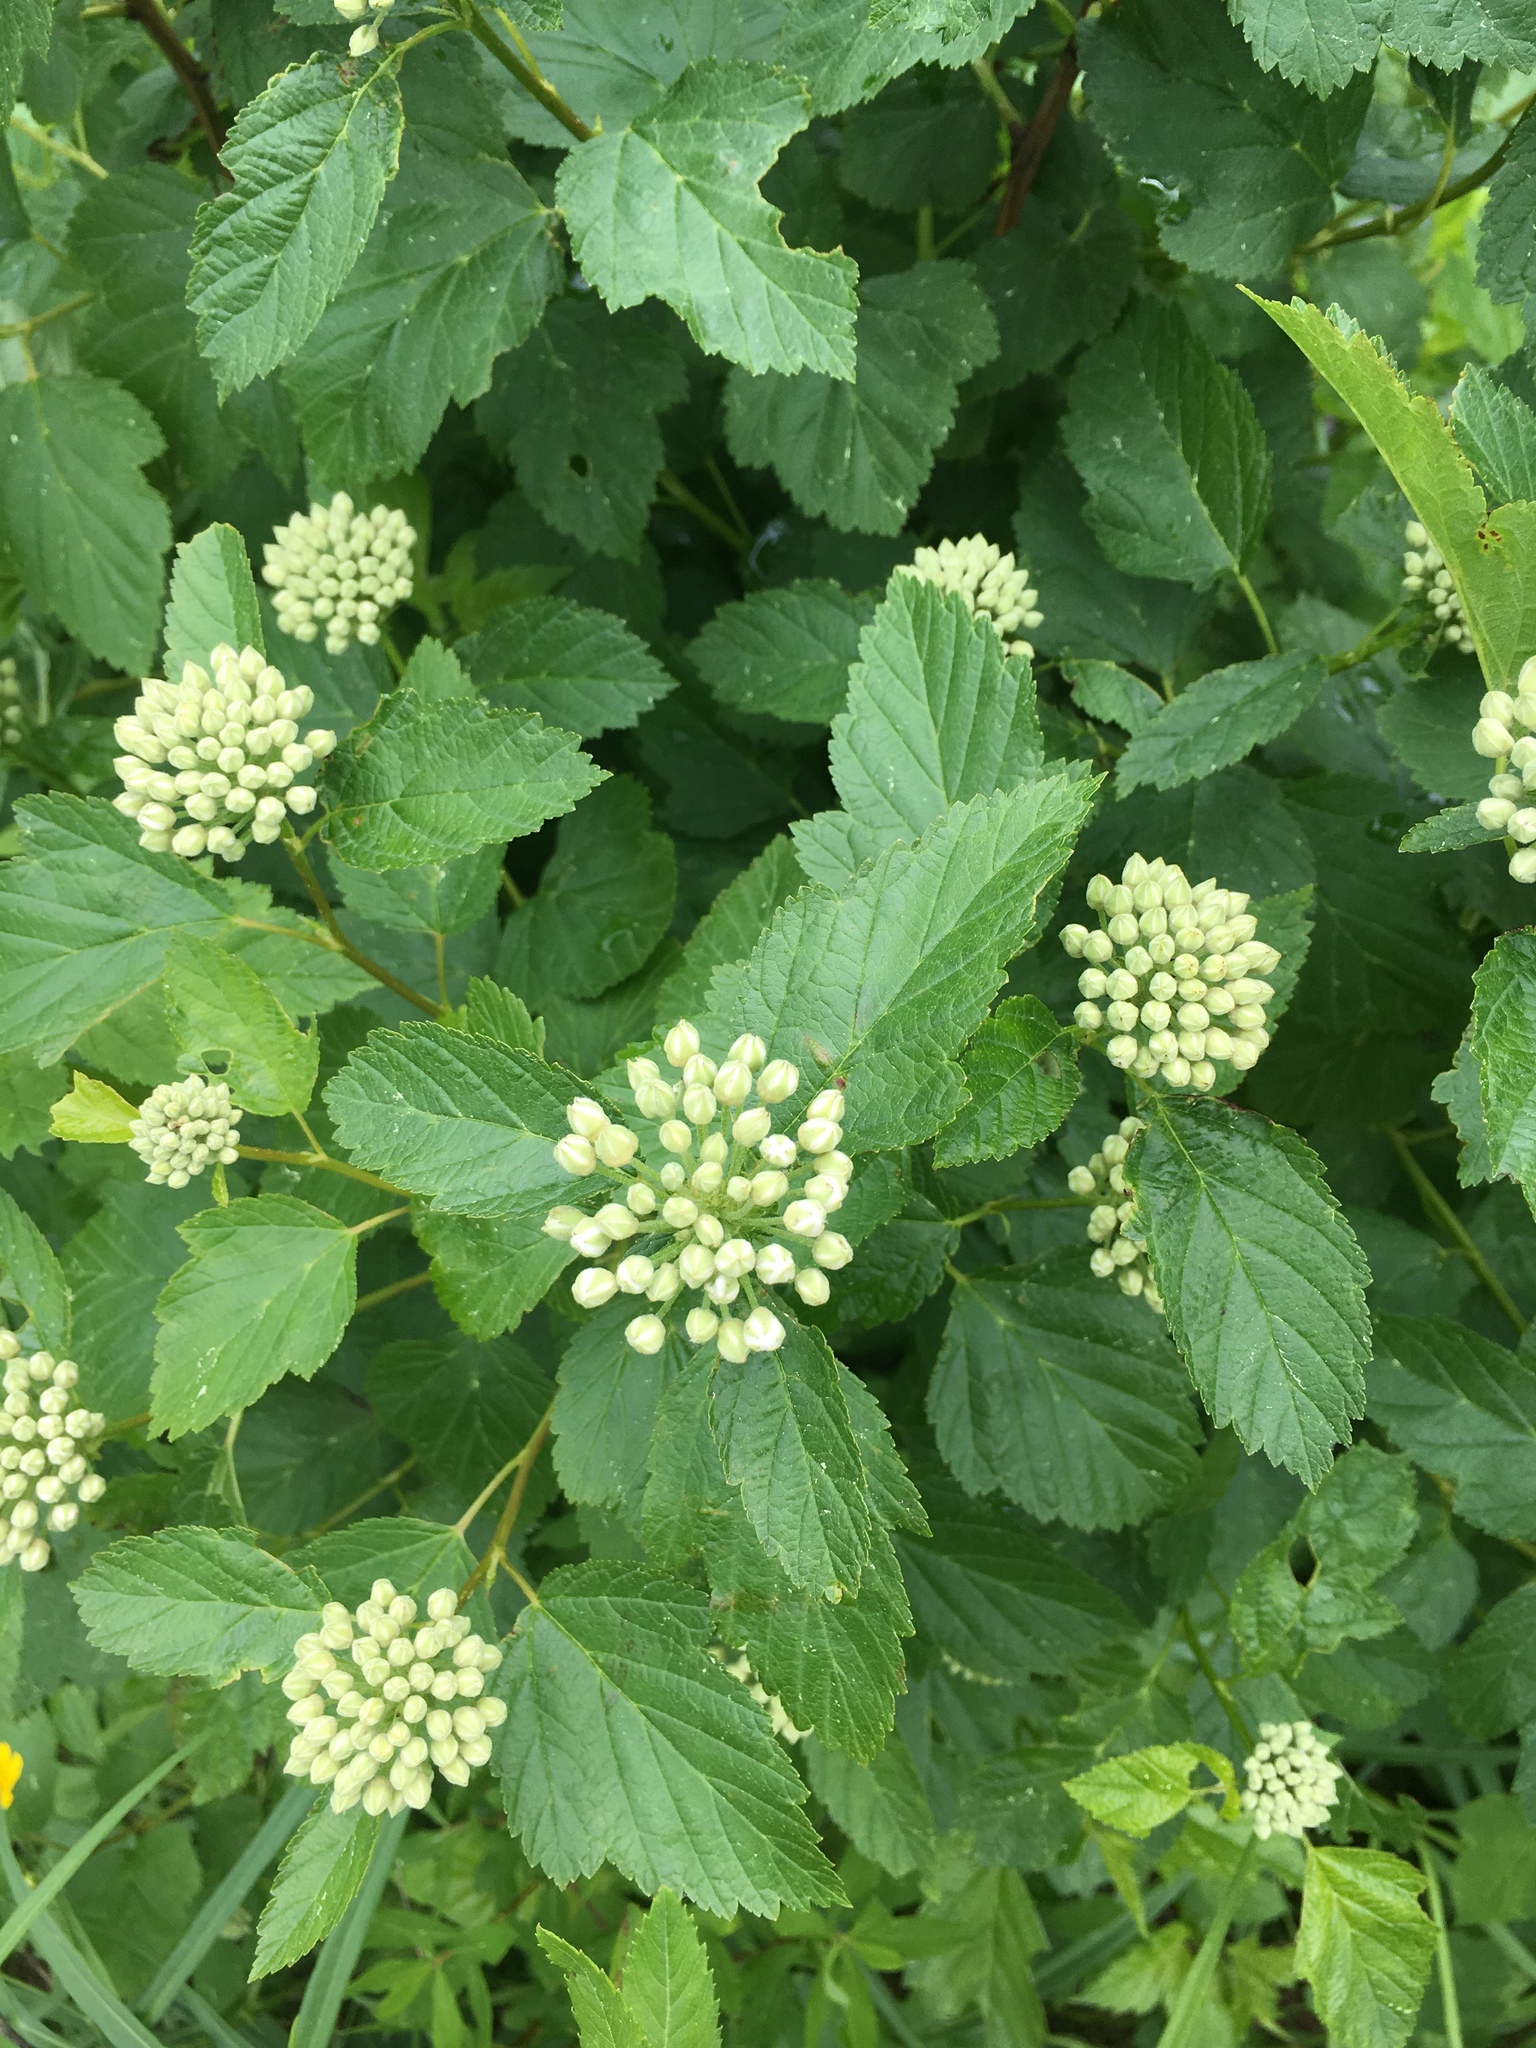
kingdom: Plantae
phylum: Tracheophyta
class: Magnoliopsida
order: Rosales
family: Rosaceae
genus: Physocarpus
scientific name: Physocarpus opulifolius
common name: Ninebark
